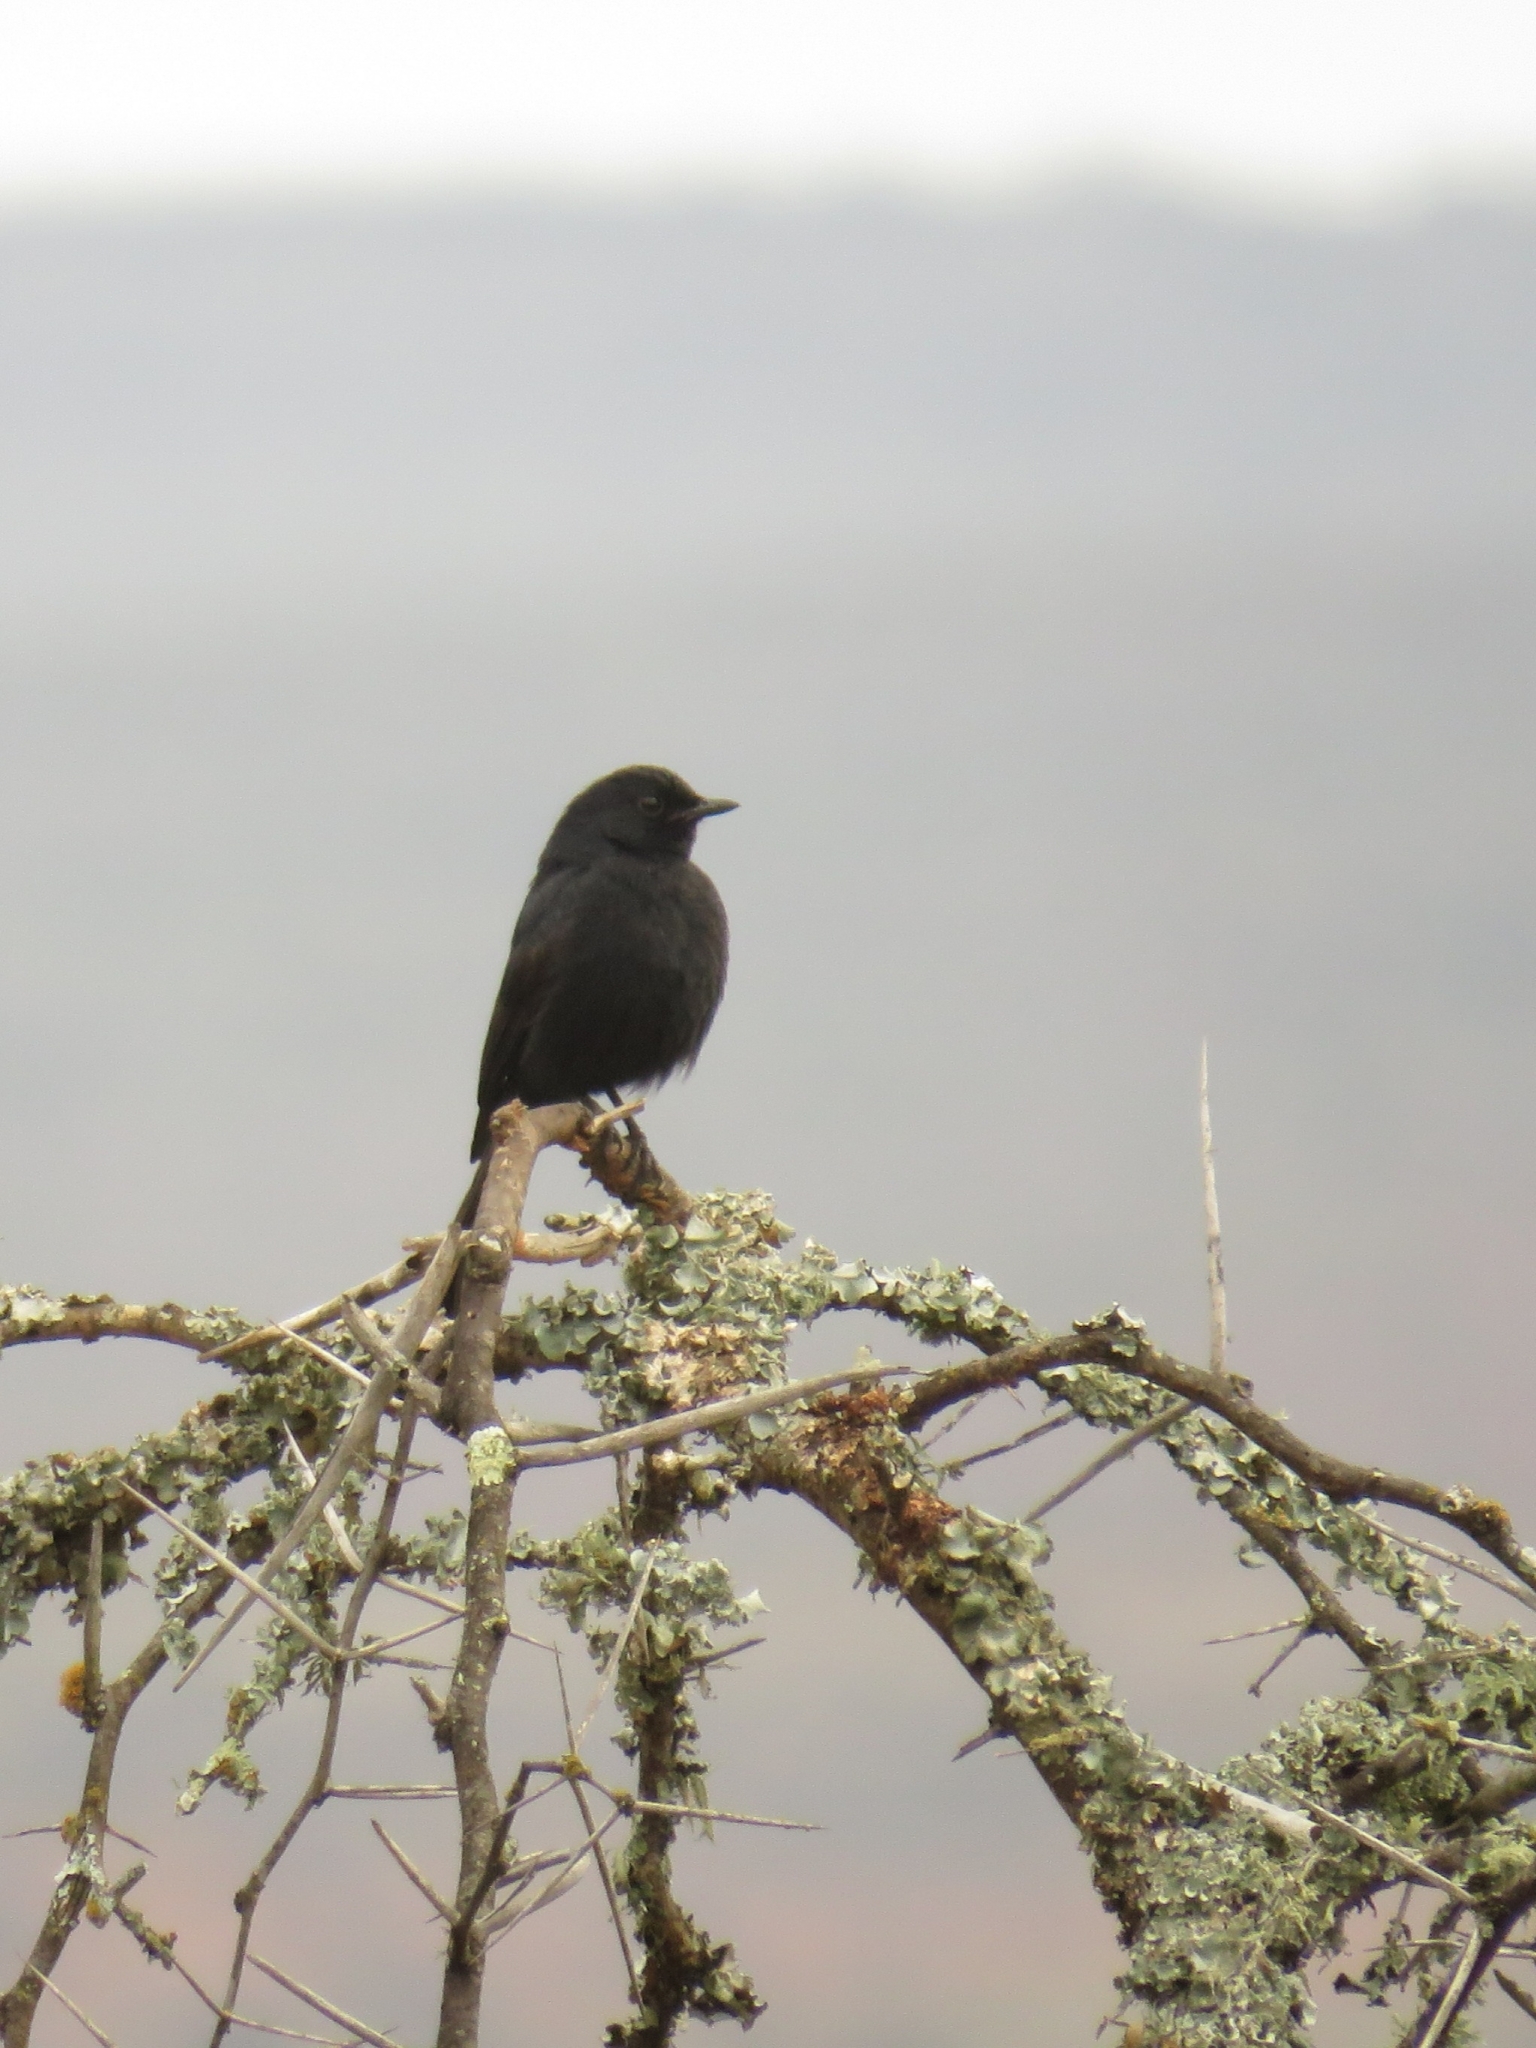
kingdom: Animalia
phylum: Chordata
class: Aves
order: Passeriformes
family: Muscicapidae
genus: Melaenornis
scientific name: Melaenornis pammelaina
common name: Southern black flycatcher
